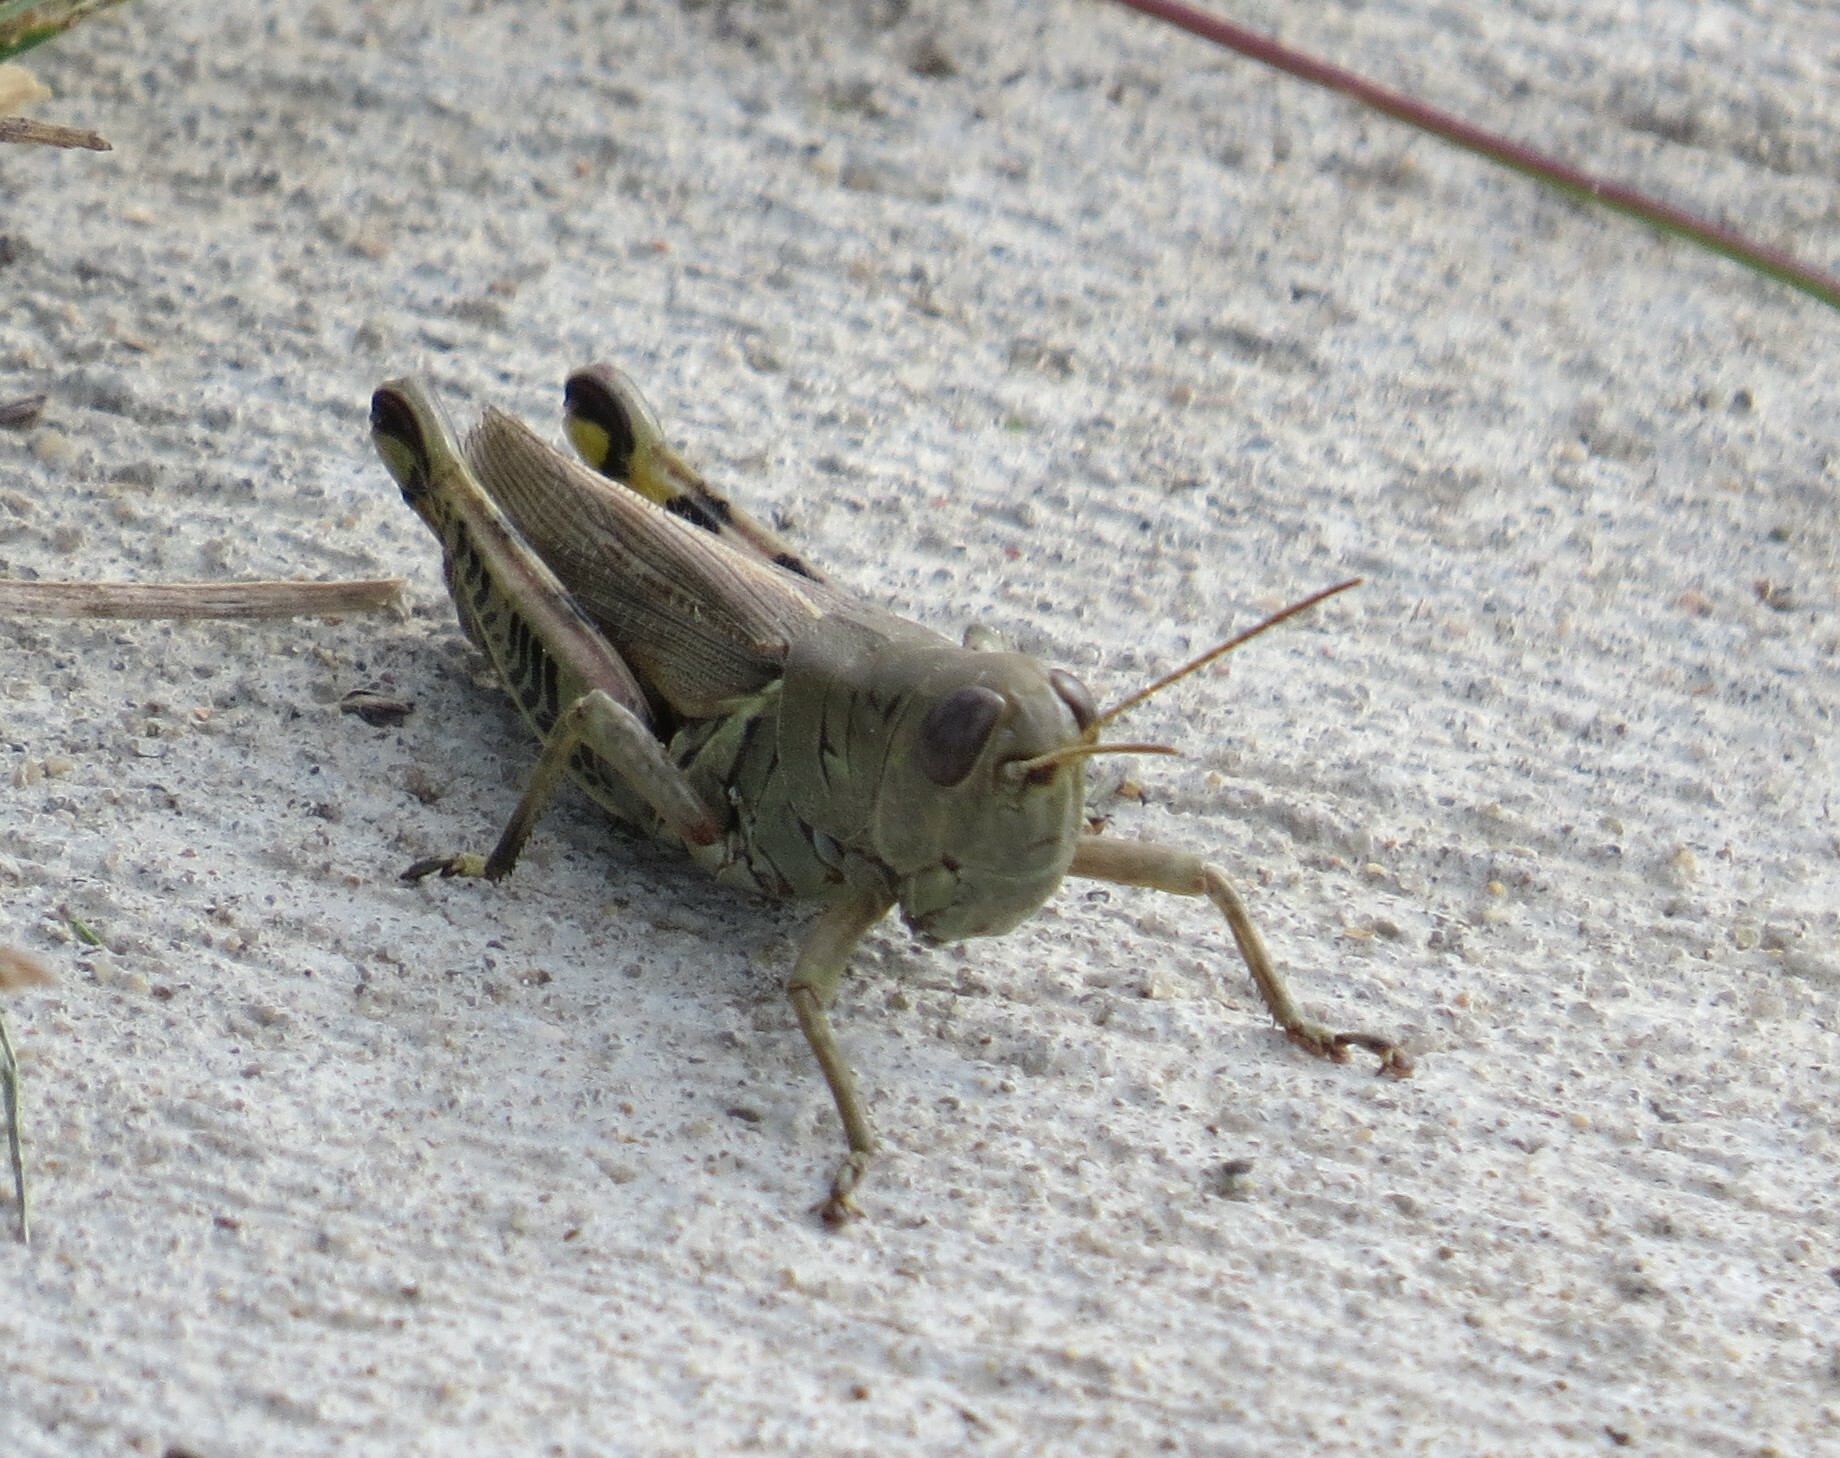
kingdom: Animalia
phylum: Arthropoda
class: Insecta
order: Orthoptera
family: Acrididae
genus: Melanoplus
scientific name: Melanoplus differentialis
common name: Differential grasshopper
